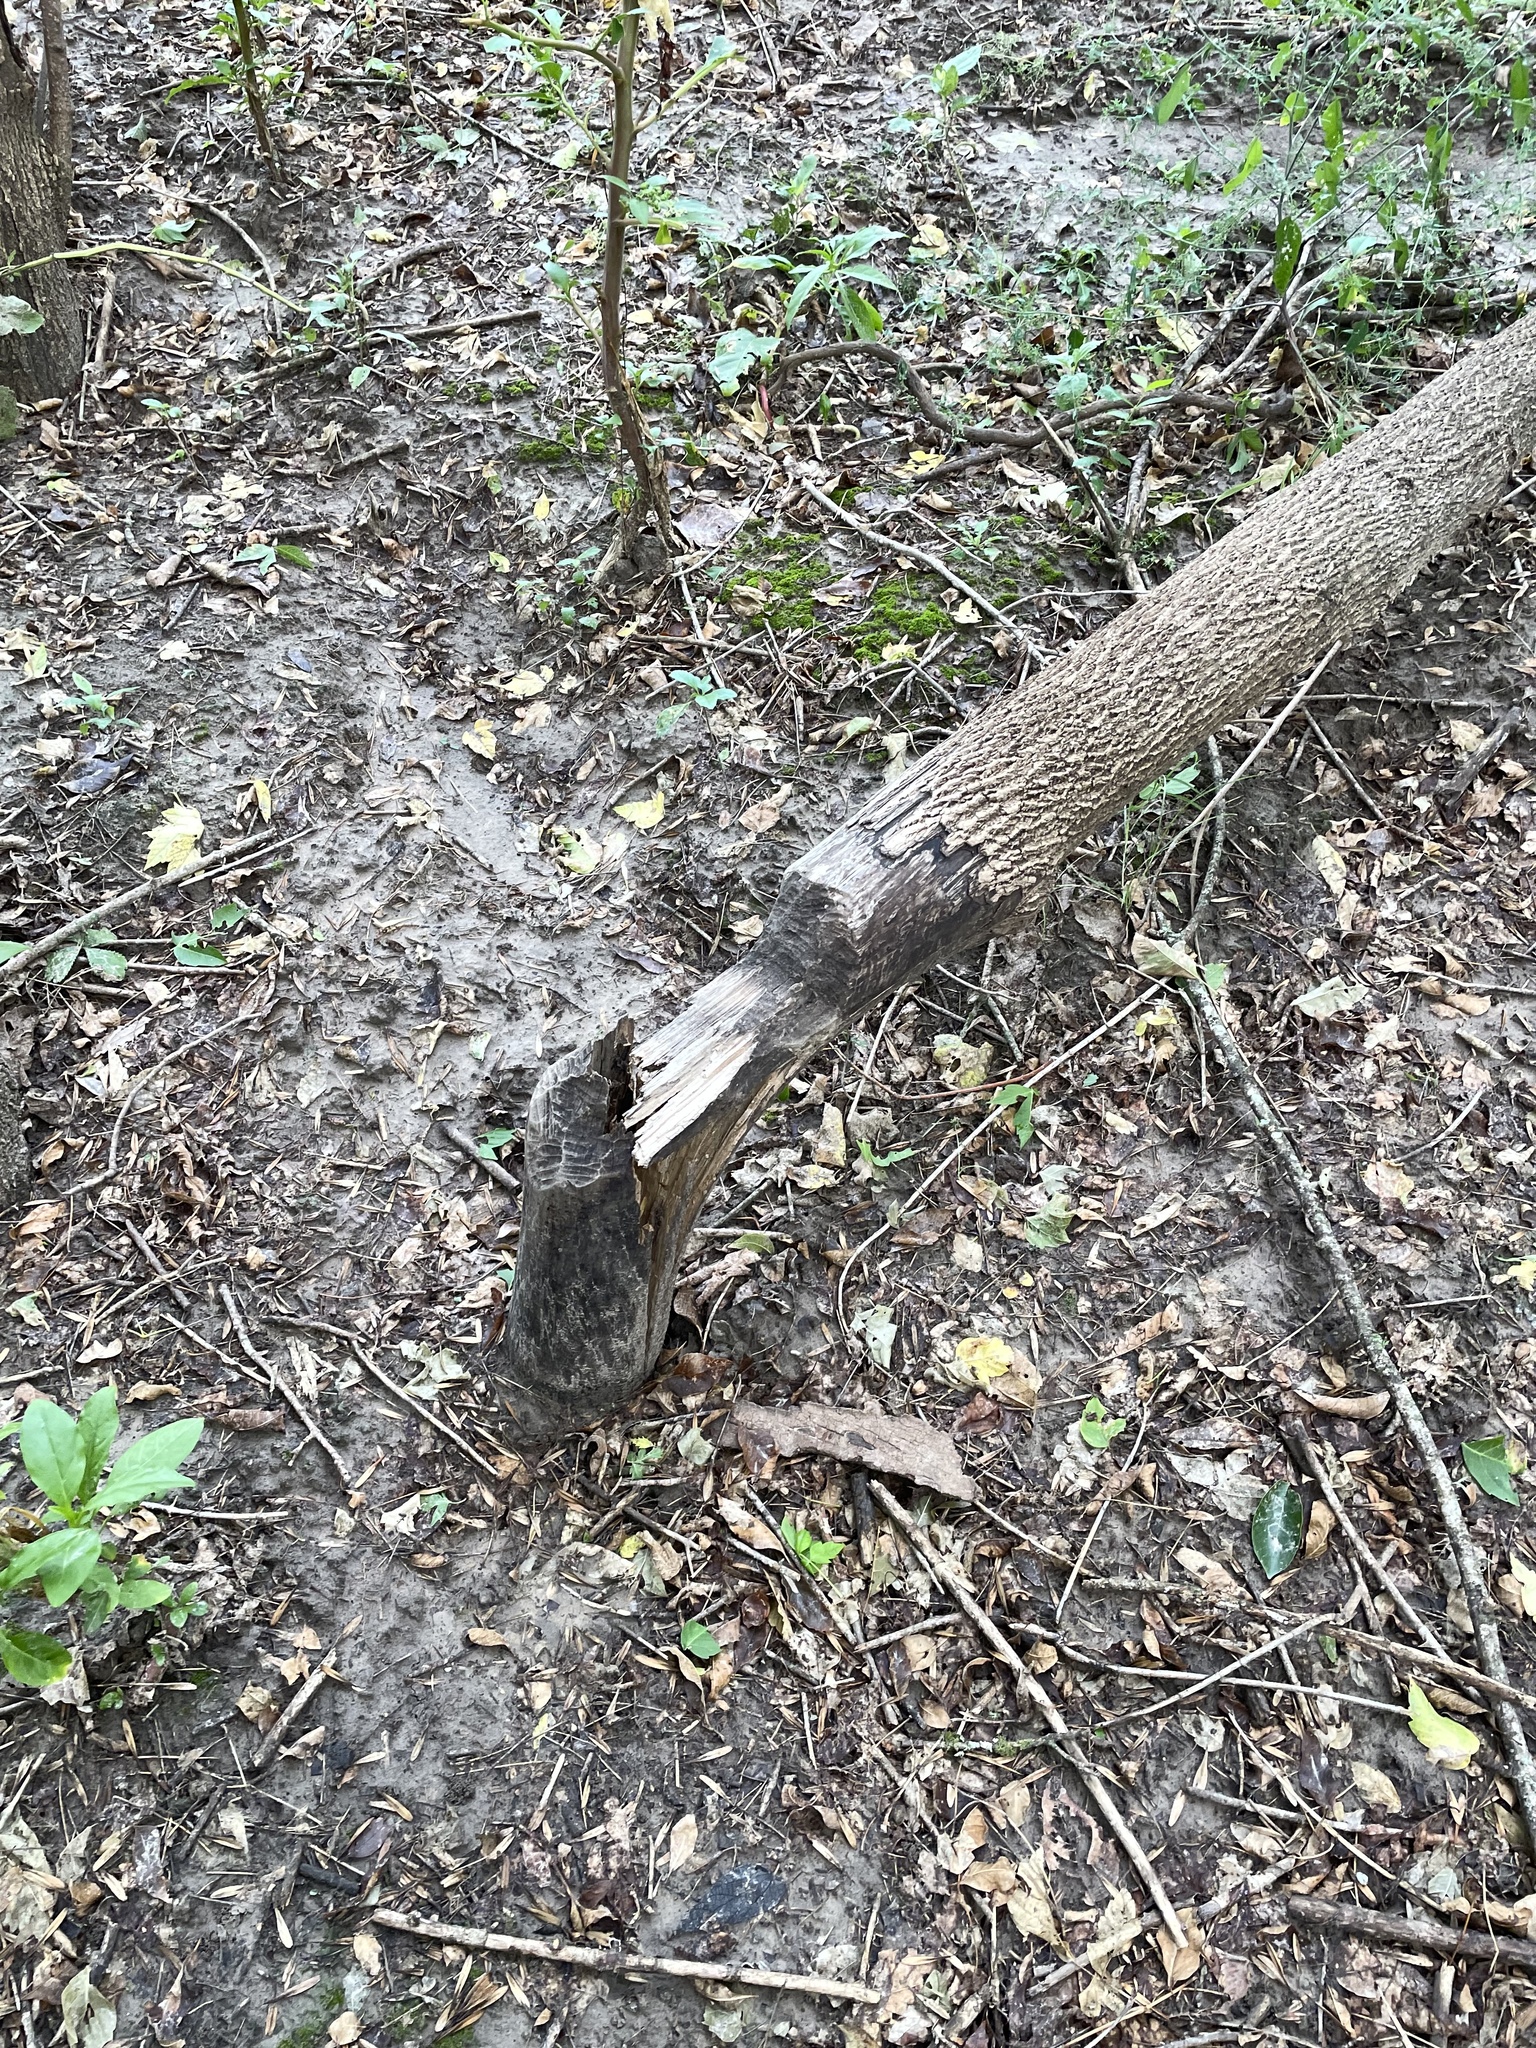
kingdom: Animalia
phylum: Chordata
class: Mammalia
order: Rodentia
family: Castoridae
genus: Castor
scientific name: Castor canadensis
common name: American beaver
